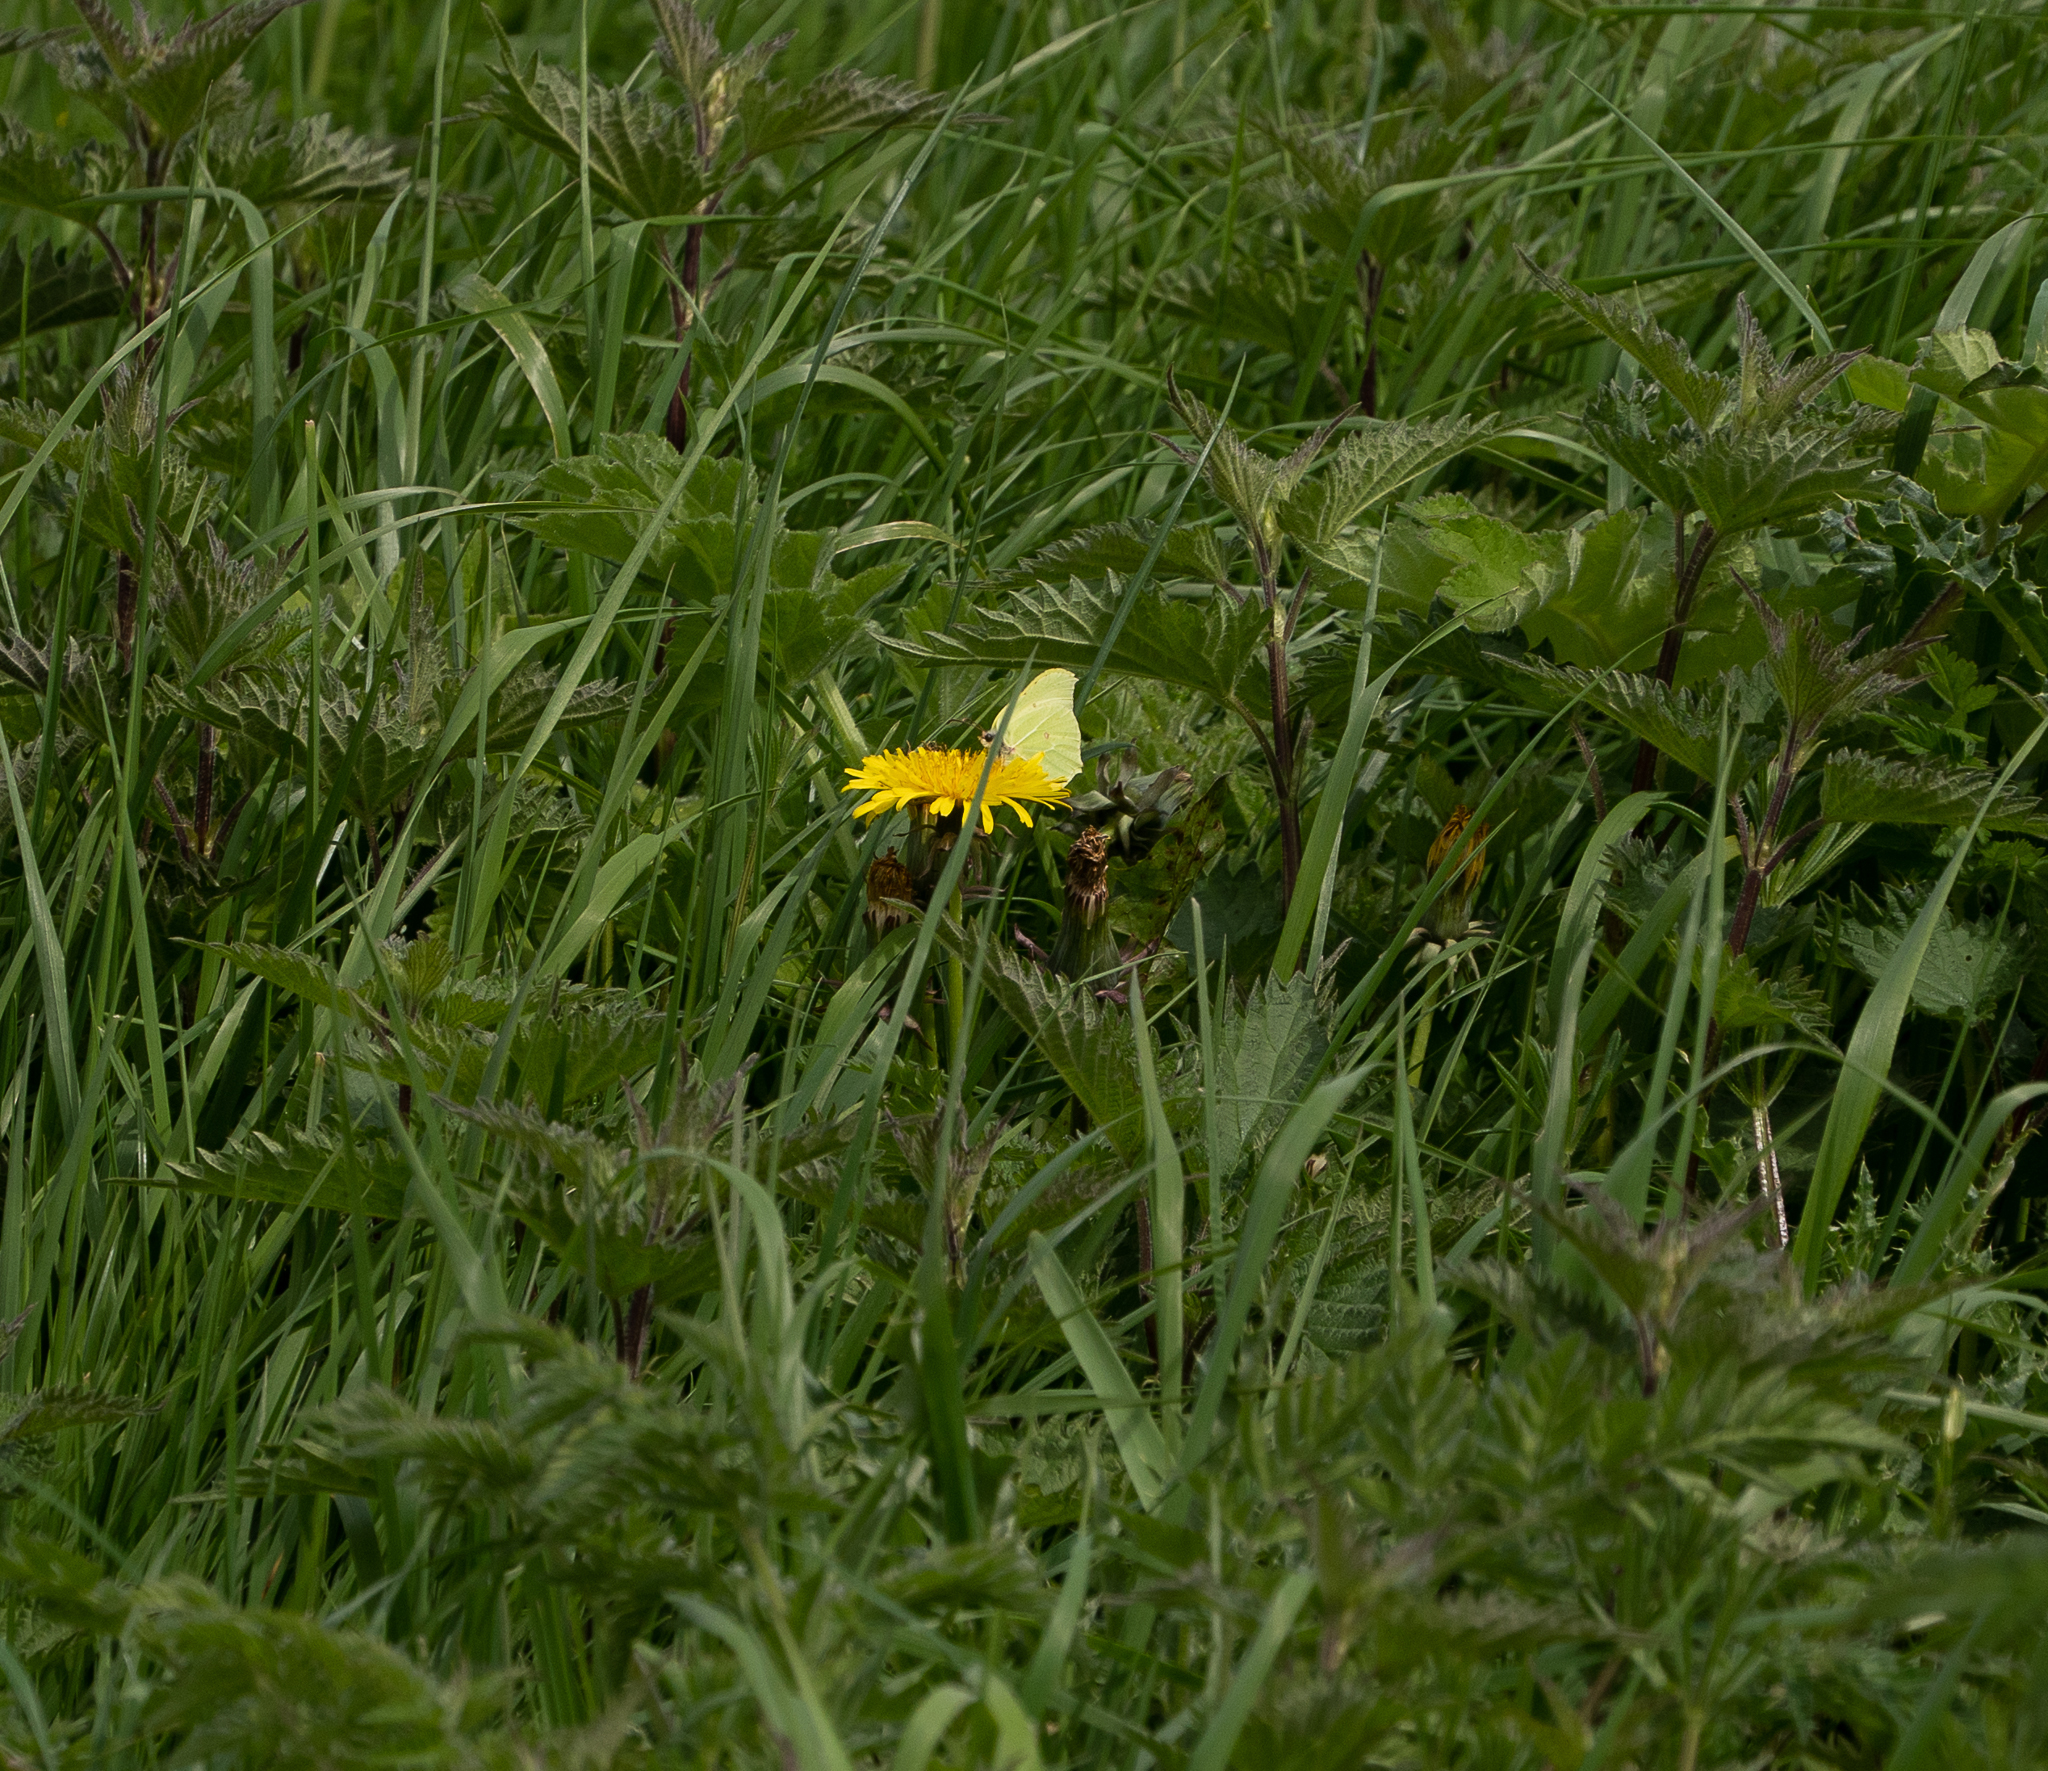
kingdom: Animalia
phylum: Arthropoda
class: Insecta
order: Lepidoptera
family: Pieridae
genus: Gonepteryx
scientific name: Gonepteryx rhamni
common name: Brimstone
